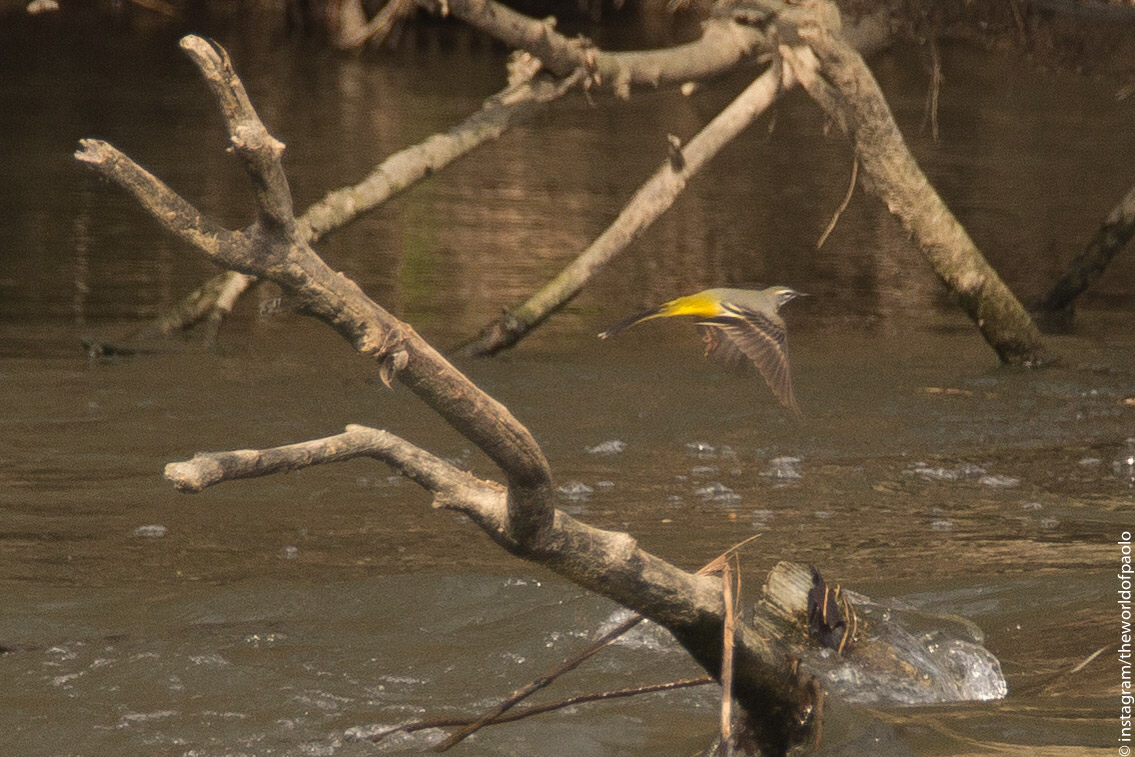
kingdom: Animalia
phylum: Chordata
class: Aves
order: Passeriformes
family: Motacillidae
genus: Motacilla
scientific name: Motacilla cinerea
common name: Grey wagtail
